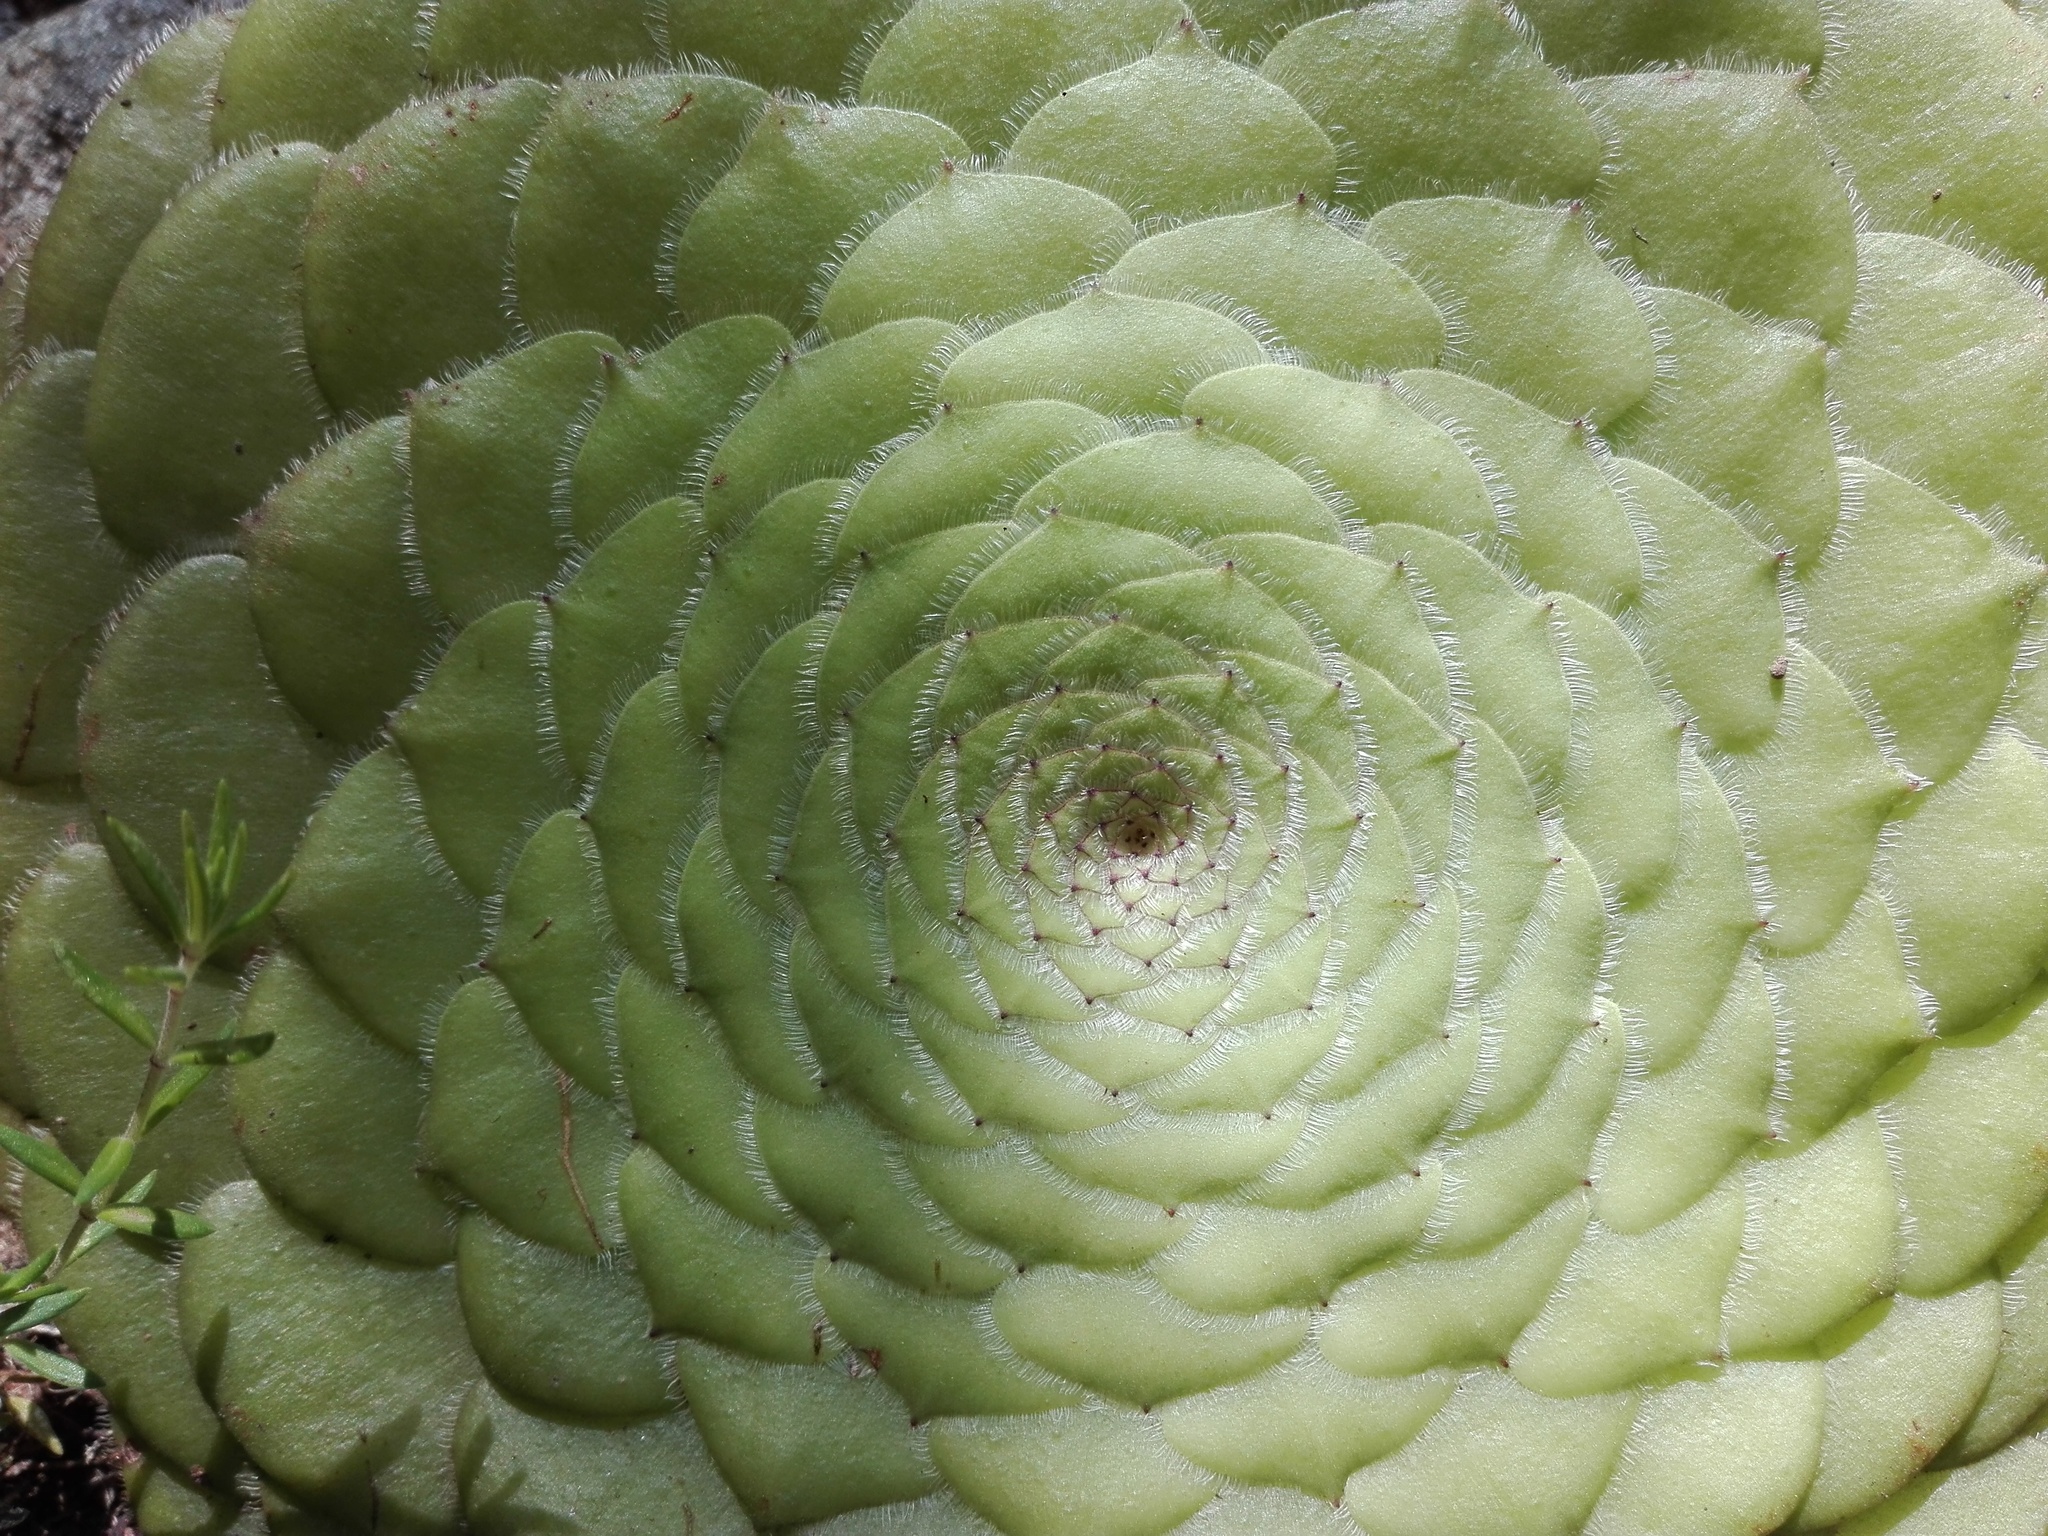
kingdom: Plantae
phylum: Tracheophyta
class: Magnoliopsida
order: Saxifragales
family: Crassulaceae
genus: Aeonium
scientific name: Aeonium tabulaeforme
